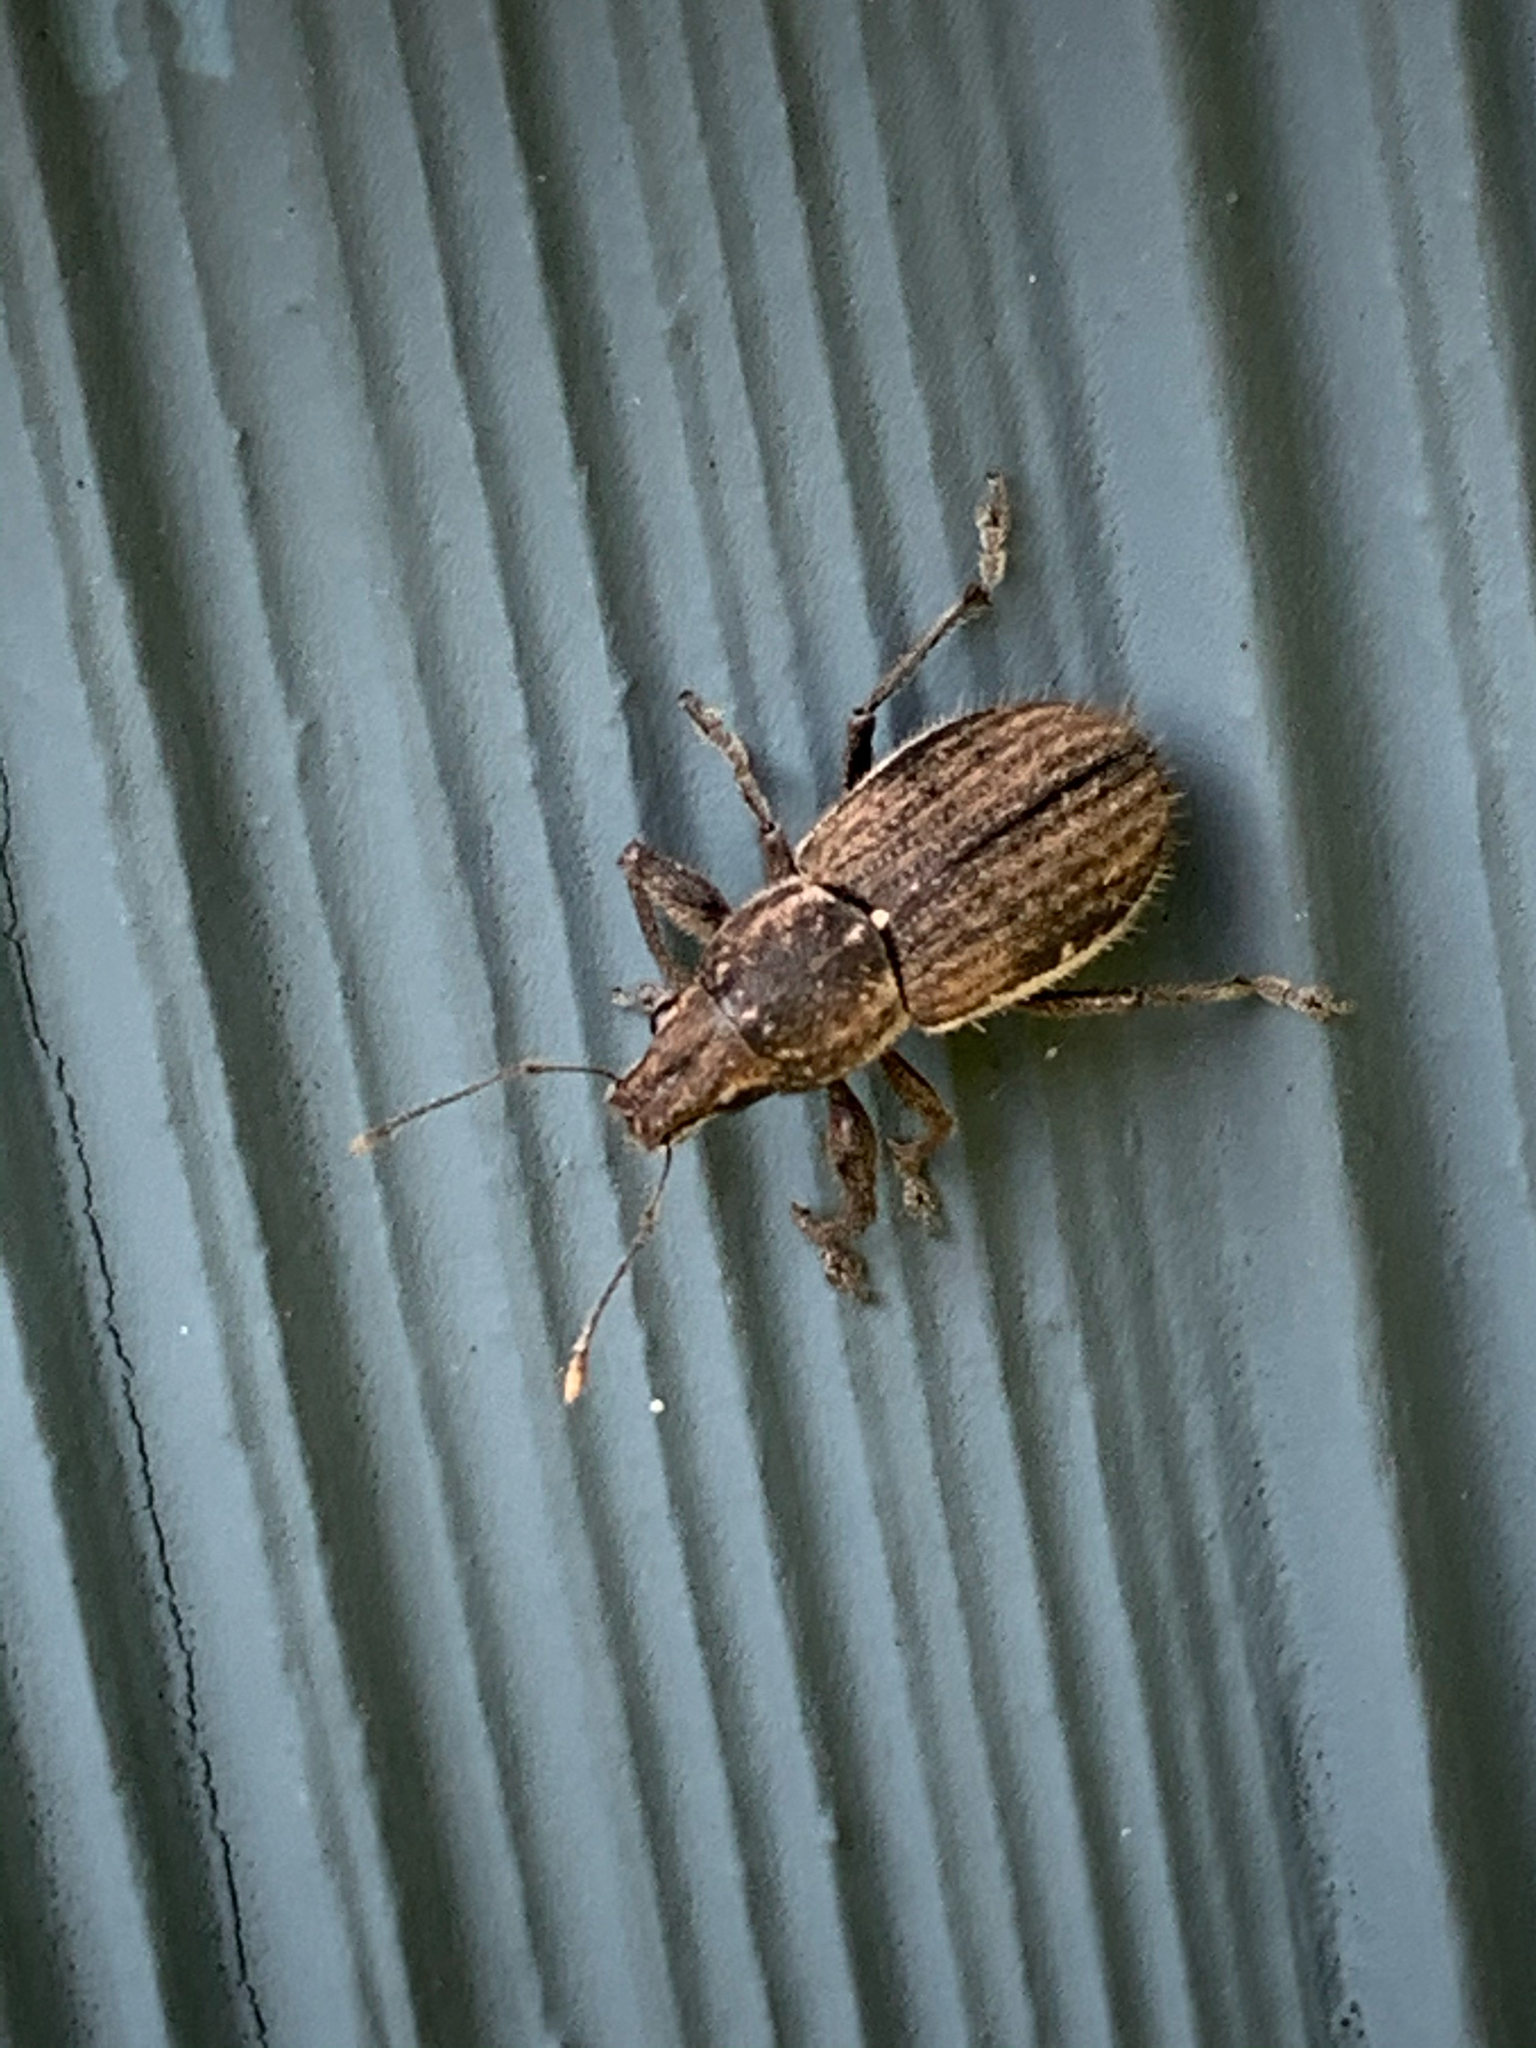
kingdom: Animalia
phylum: Arthropoda
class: Insecta
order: Coleoptera
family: Curculionidae
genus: Naupactus
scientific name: Naupactus leucoloma
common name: Whitefringed beetle
